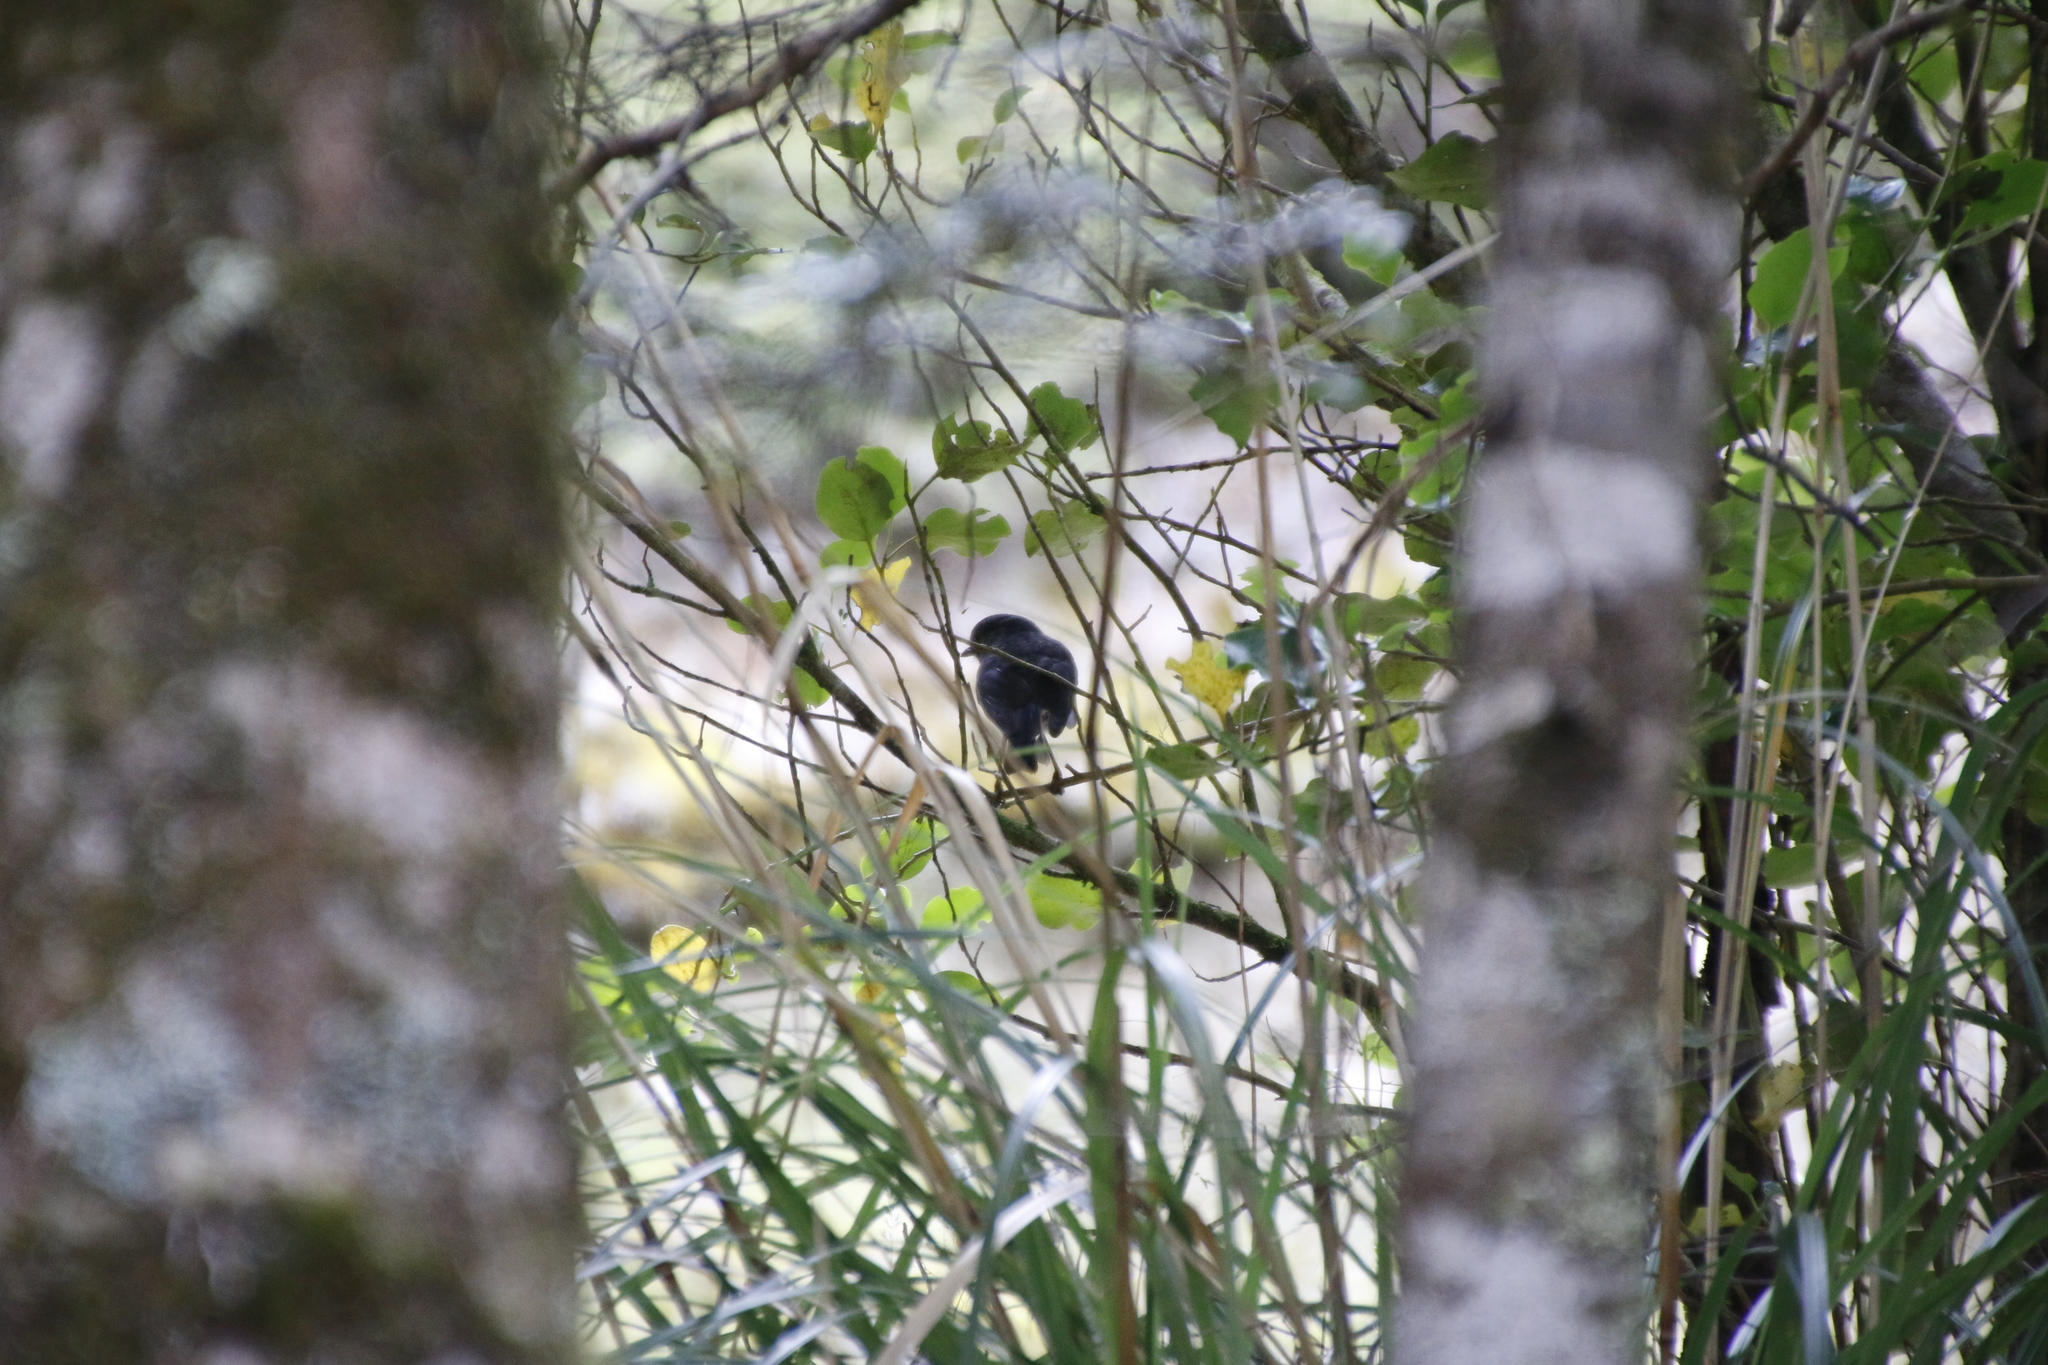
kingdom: Animalia
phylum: Chordata
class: Aves
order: Passeriformes
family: Petroicidae
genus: Petroica
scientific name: Petroica australis
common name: New zealand robin
